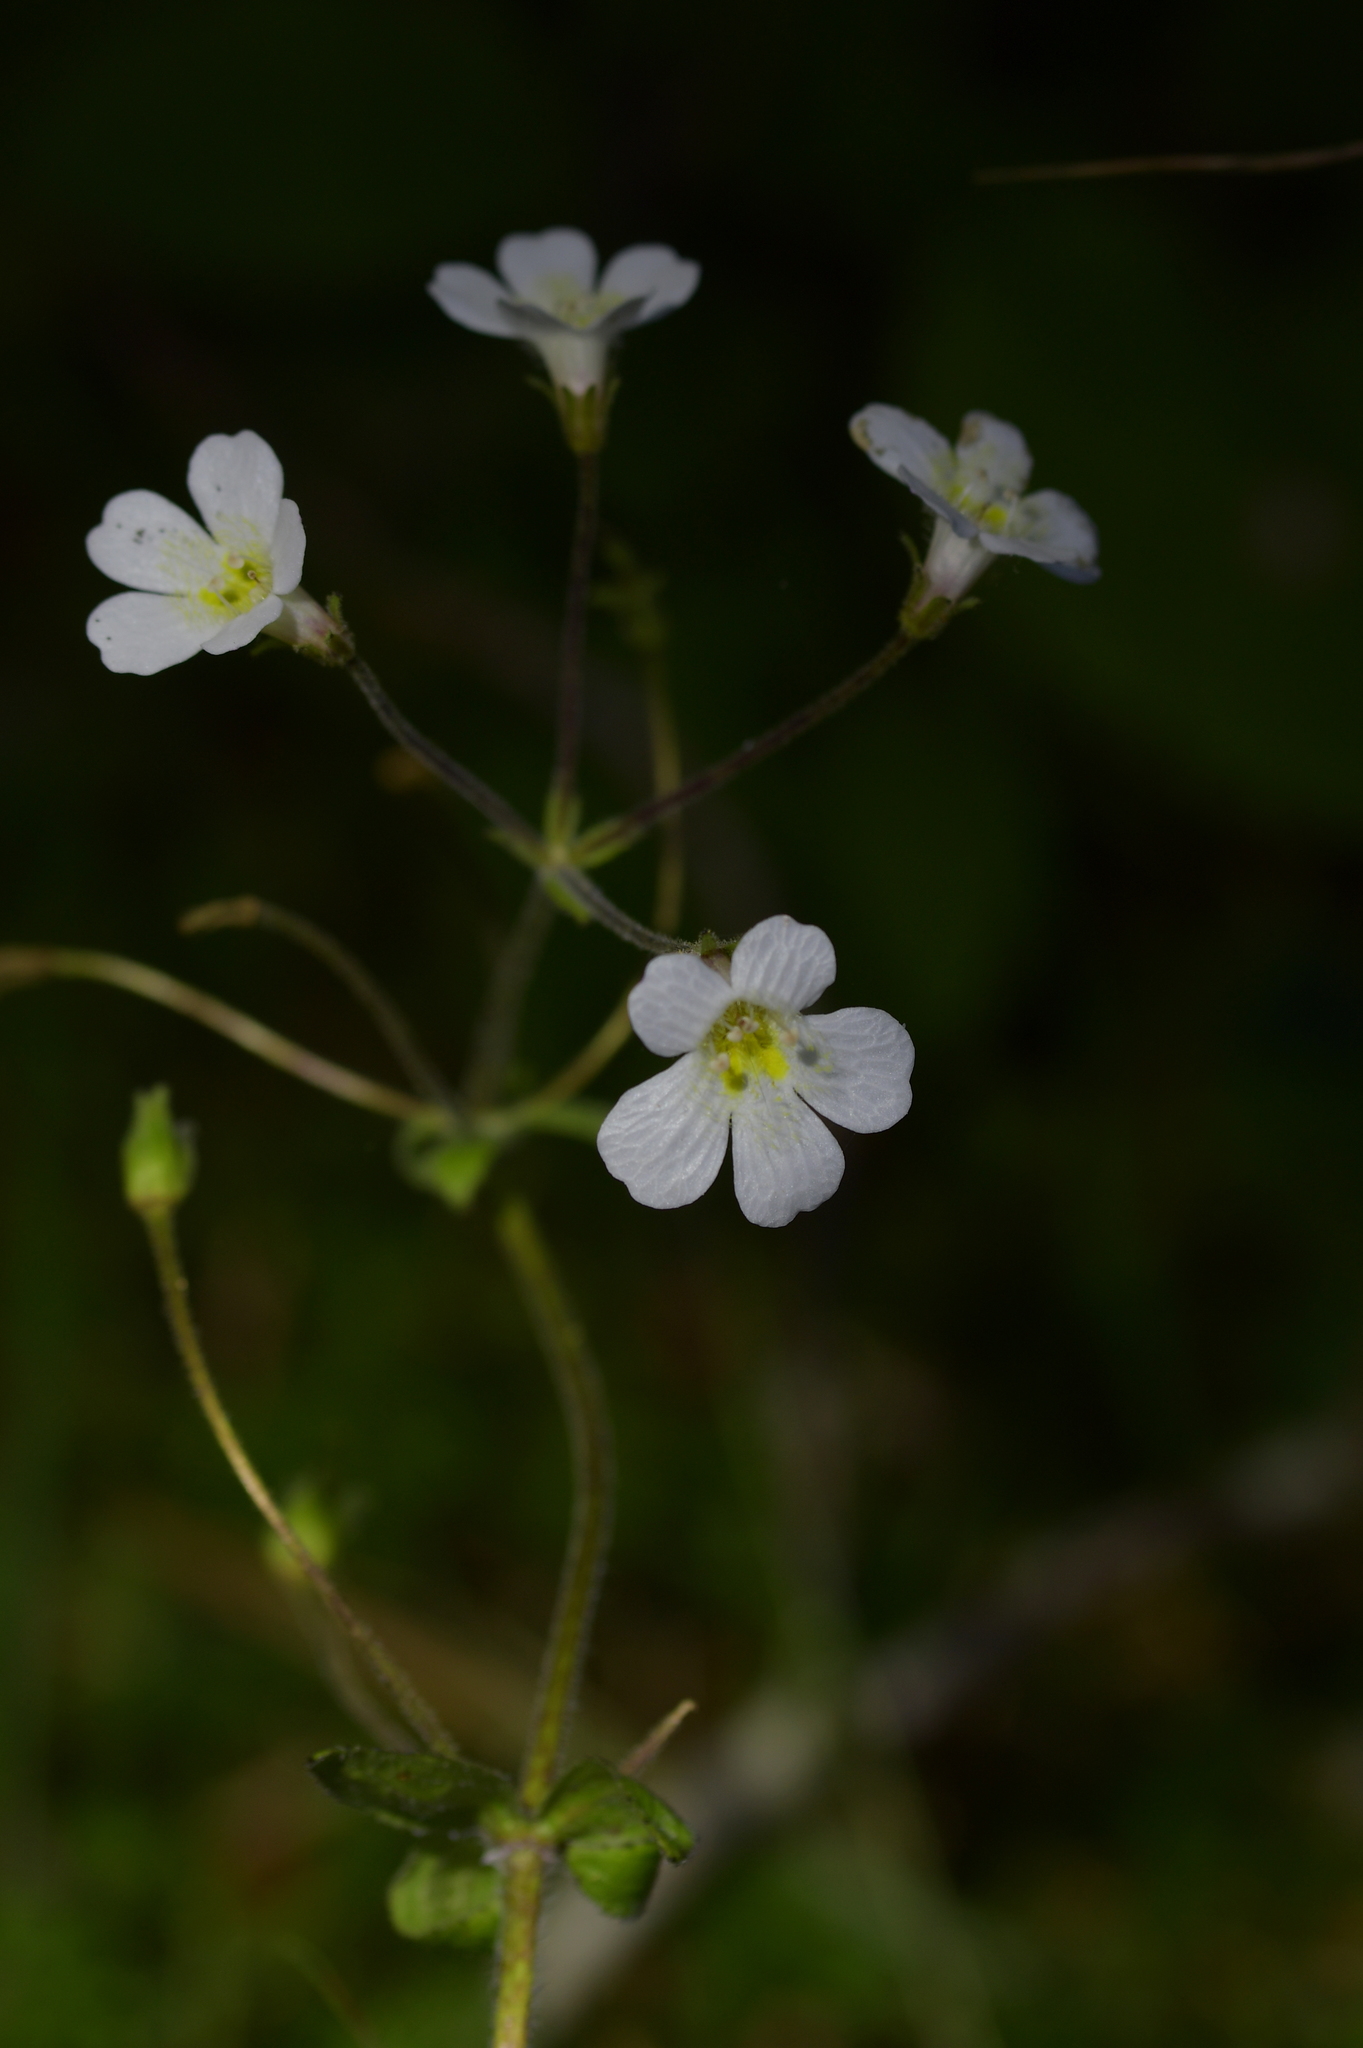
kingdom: Plantae
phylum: Tracheophyta
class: Magnoliopsida
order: Lamiales
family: Plantaginaceae
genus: Ourisia
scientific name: Ourisia macrophylla
